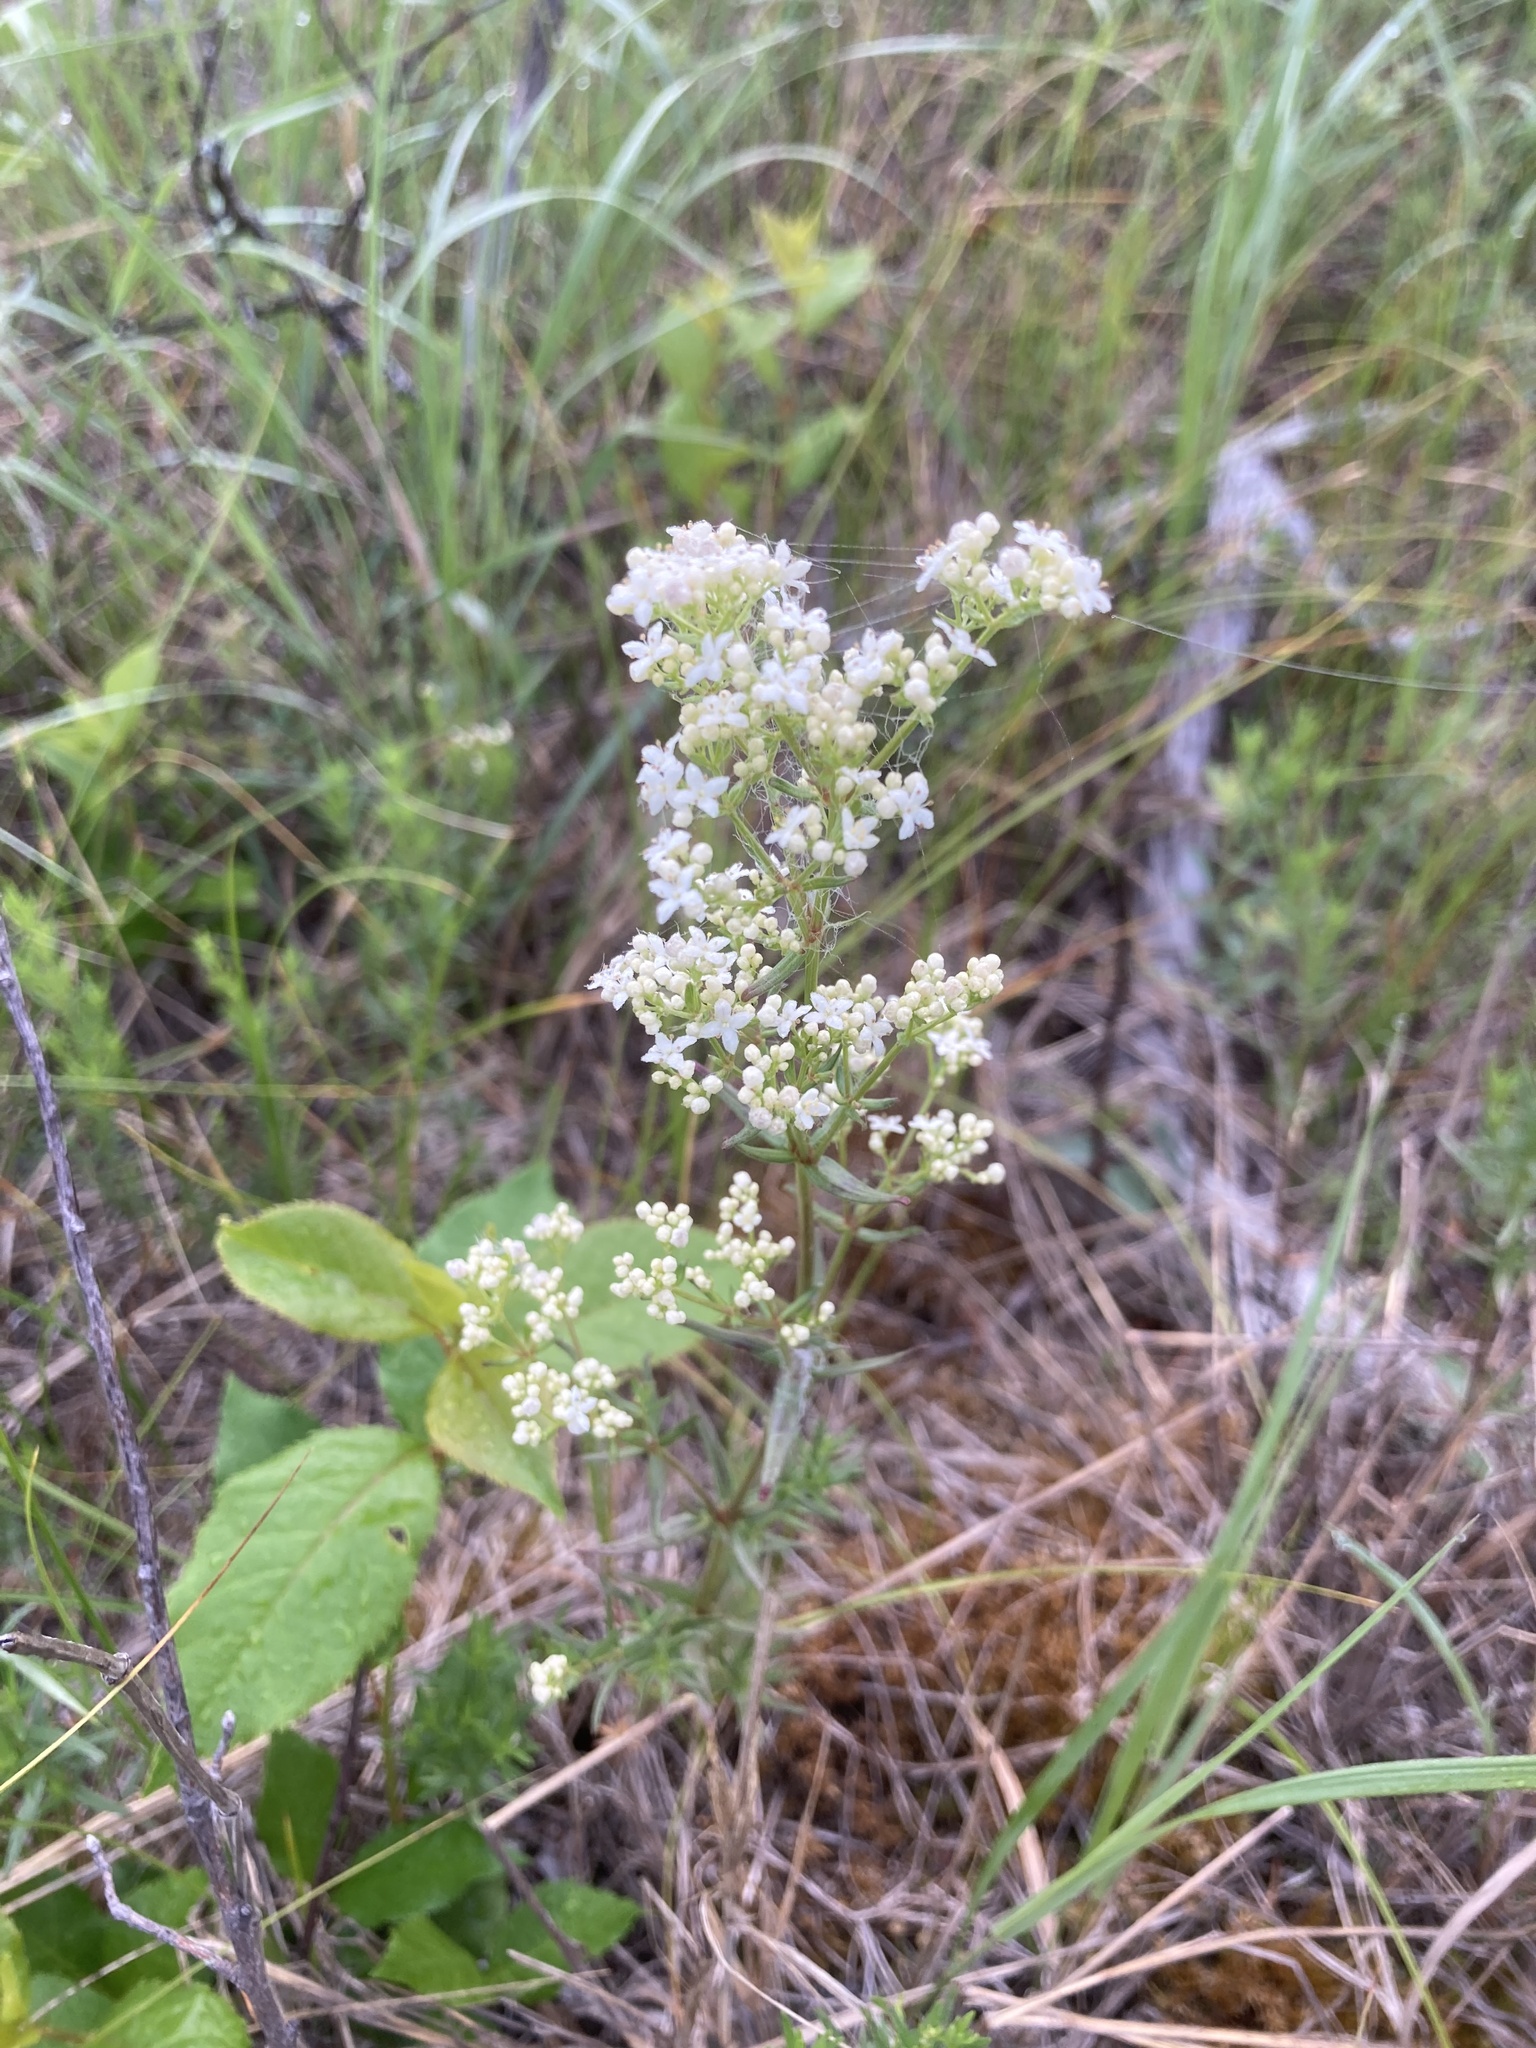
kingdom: Plantae
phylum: Tracheophyta
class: Magnoliopsida
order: Gentianales
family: Rubiaceae
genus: Galium
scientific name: Galium boreale
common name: Northern bedstraw
